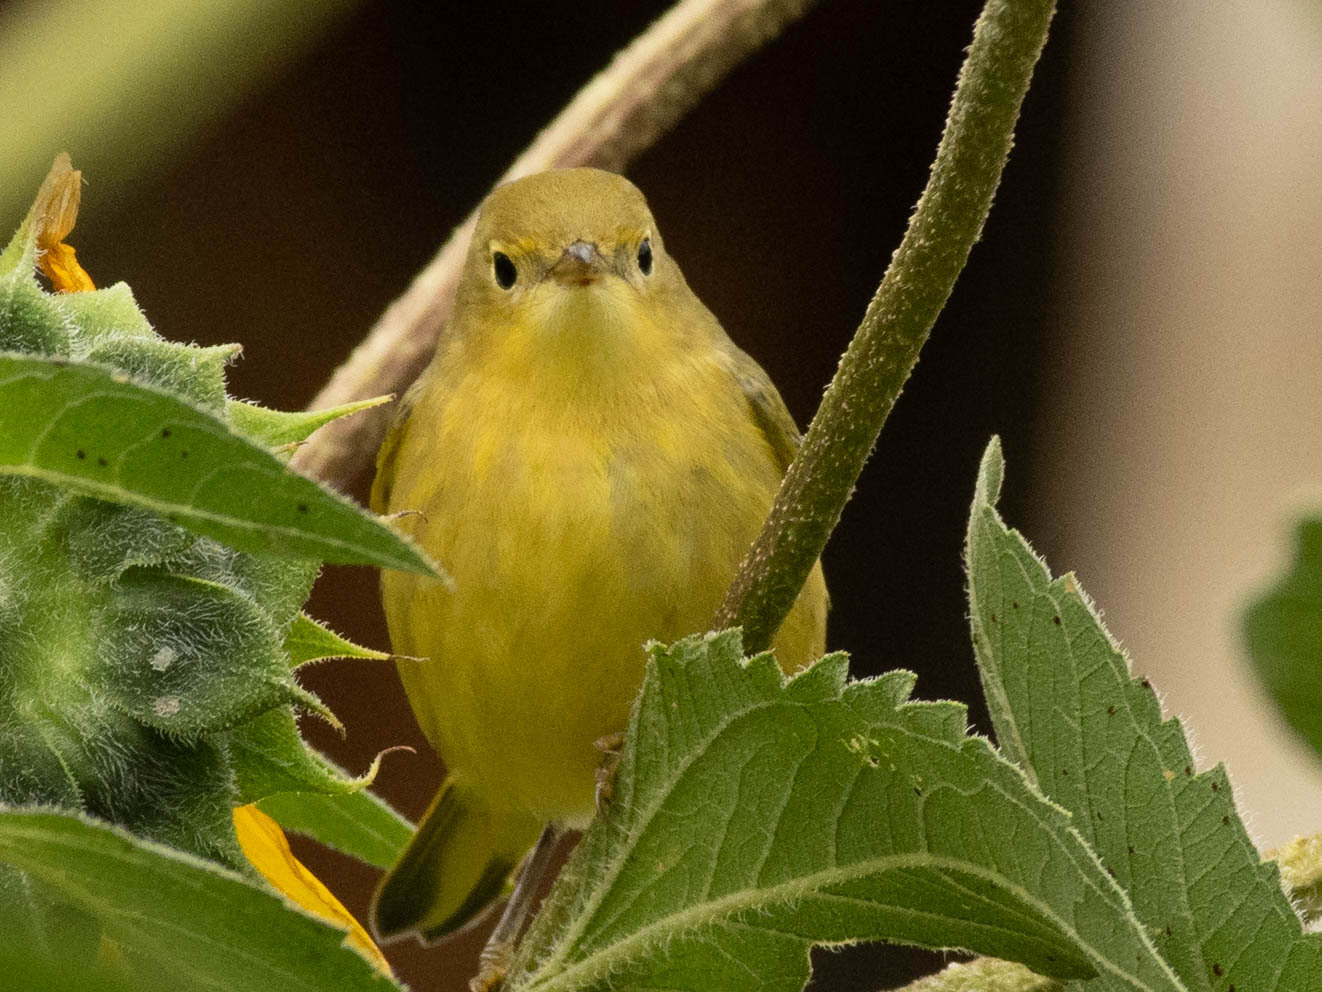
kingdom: Animalia
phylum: Chordata
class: Aves
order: Passeriformes
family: Parulidae
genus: Setophaga
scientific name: Setophaga petechia
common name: Yellow warbler
